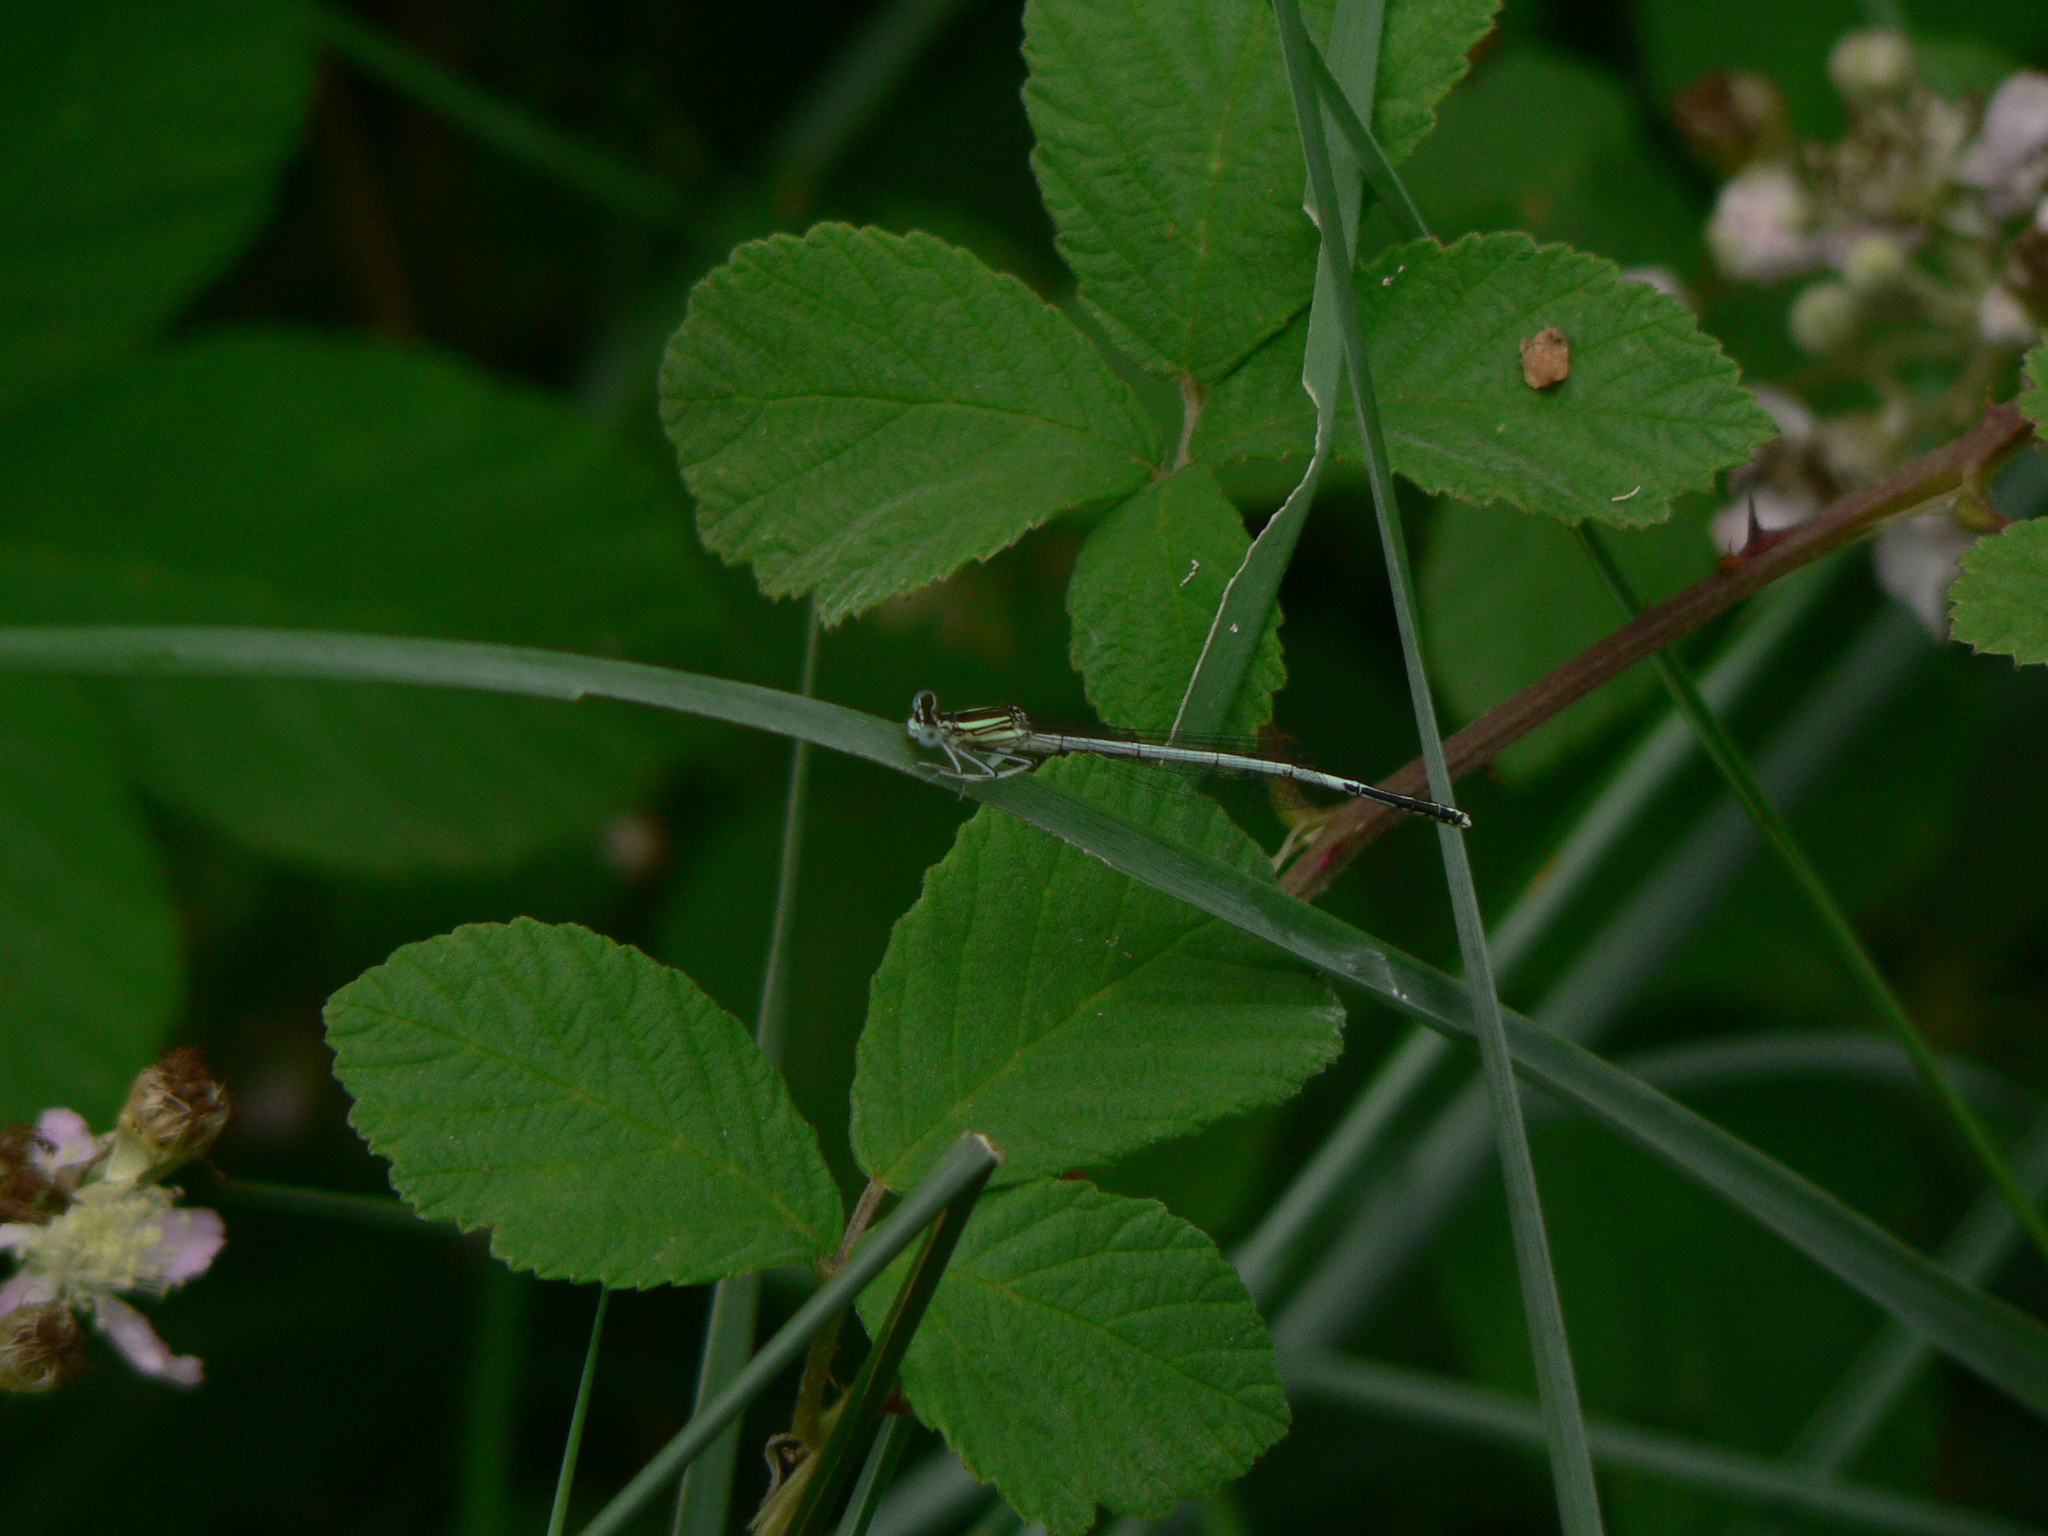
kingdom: Animalia
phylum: Arthropoda
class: Insecta
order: Odonata
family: Platycnemididae
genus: Platycnemis
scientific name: Platycnemis latipes
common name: White featherleg
